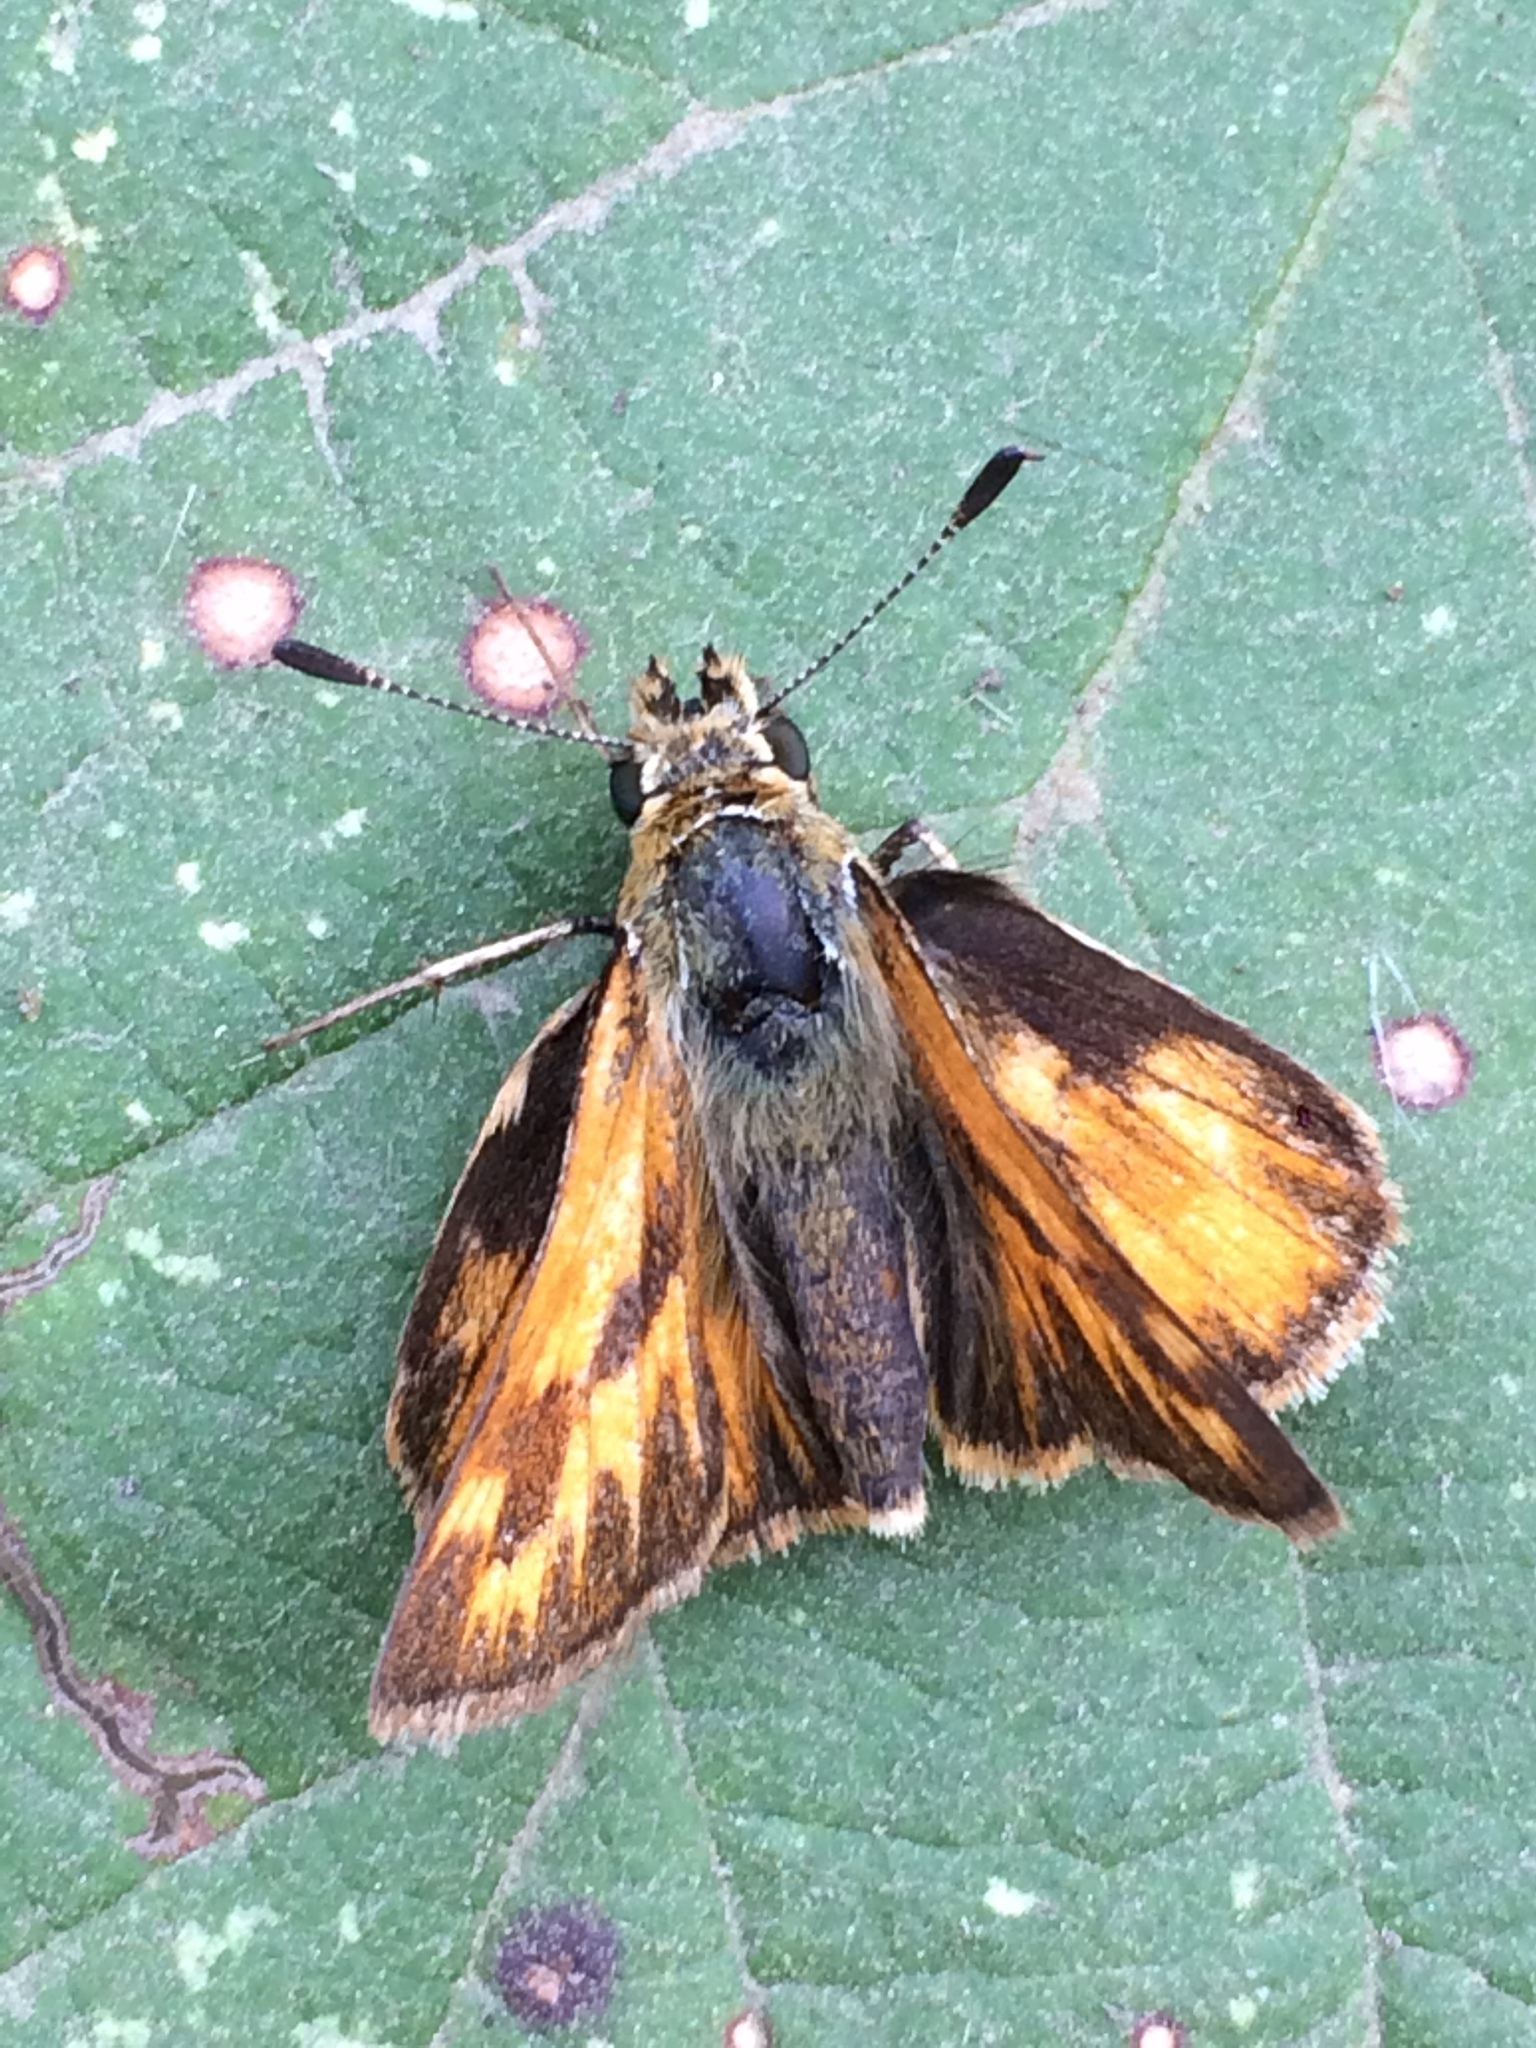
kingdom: Animalia
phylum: Arthropoda
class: Insecta
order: Lepidoptera
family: Hesperiidae
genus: Ochlodes
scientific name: Ochlodes sylvanoides
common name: Woodland skipper
